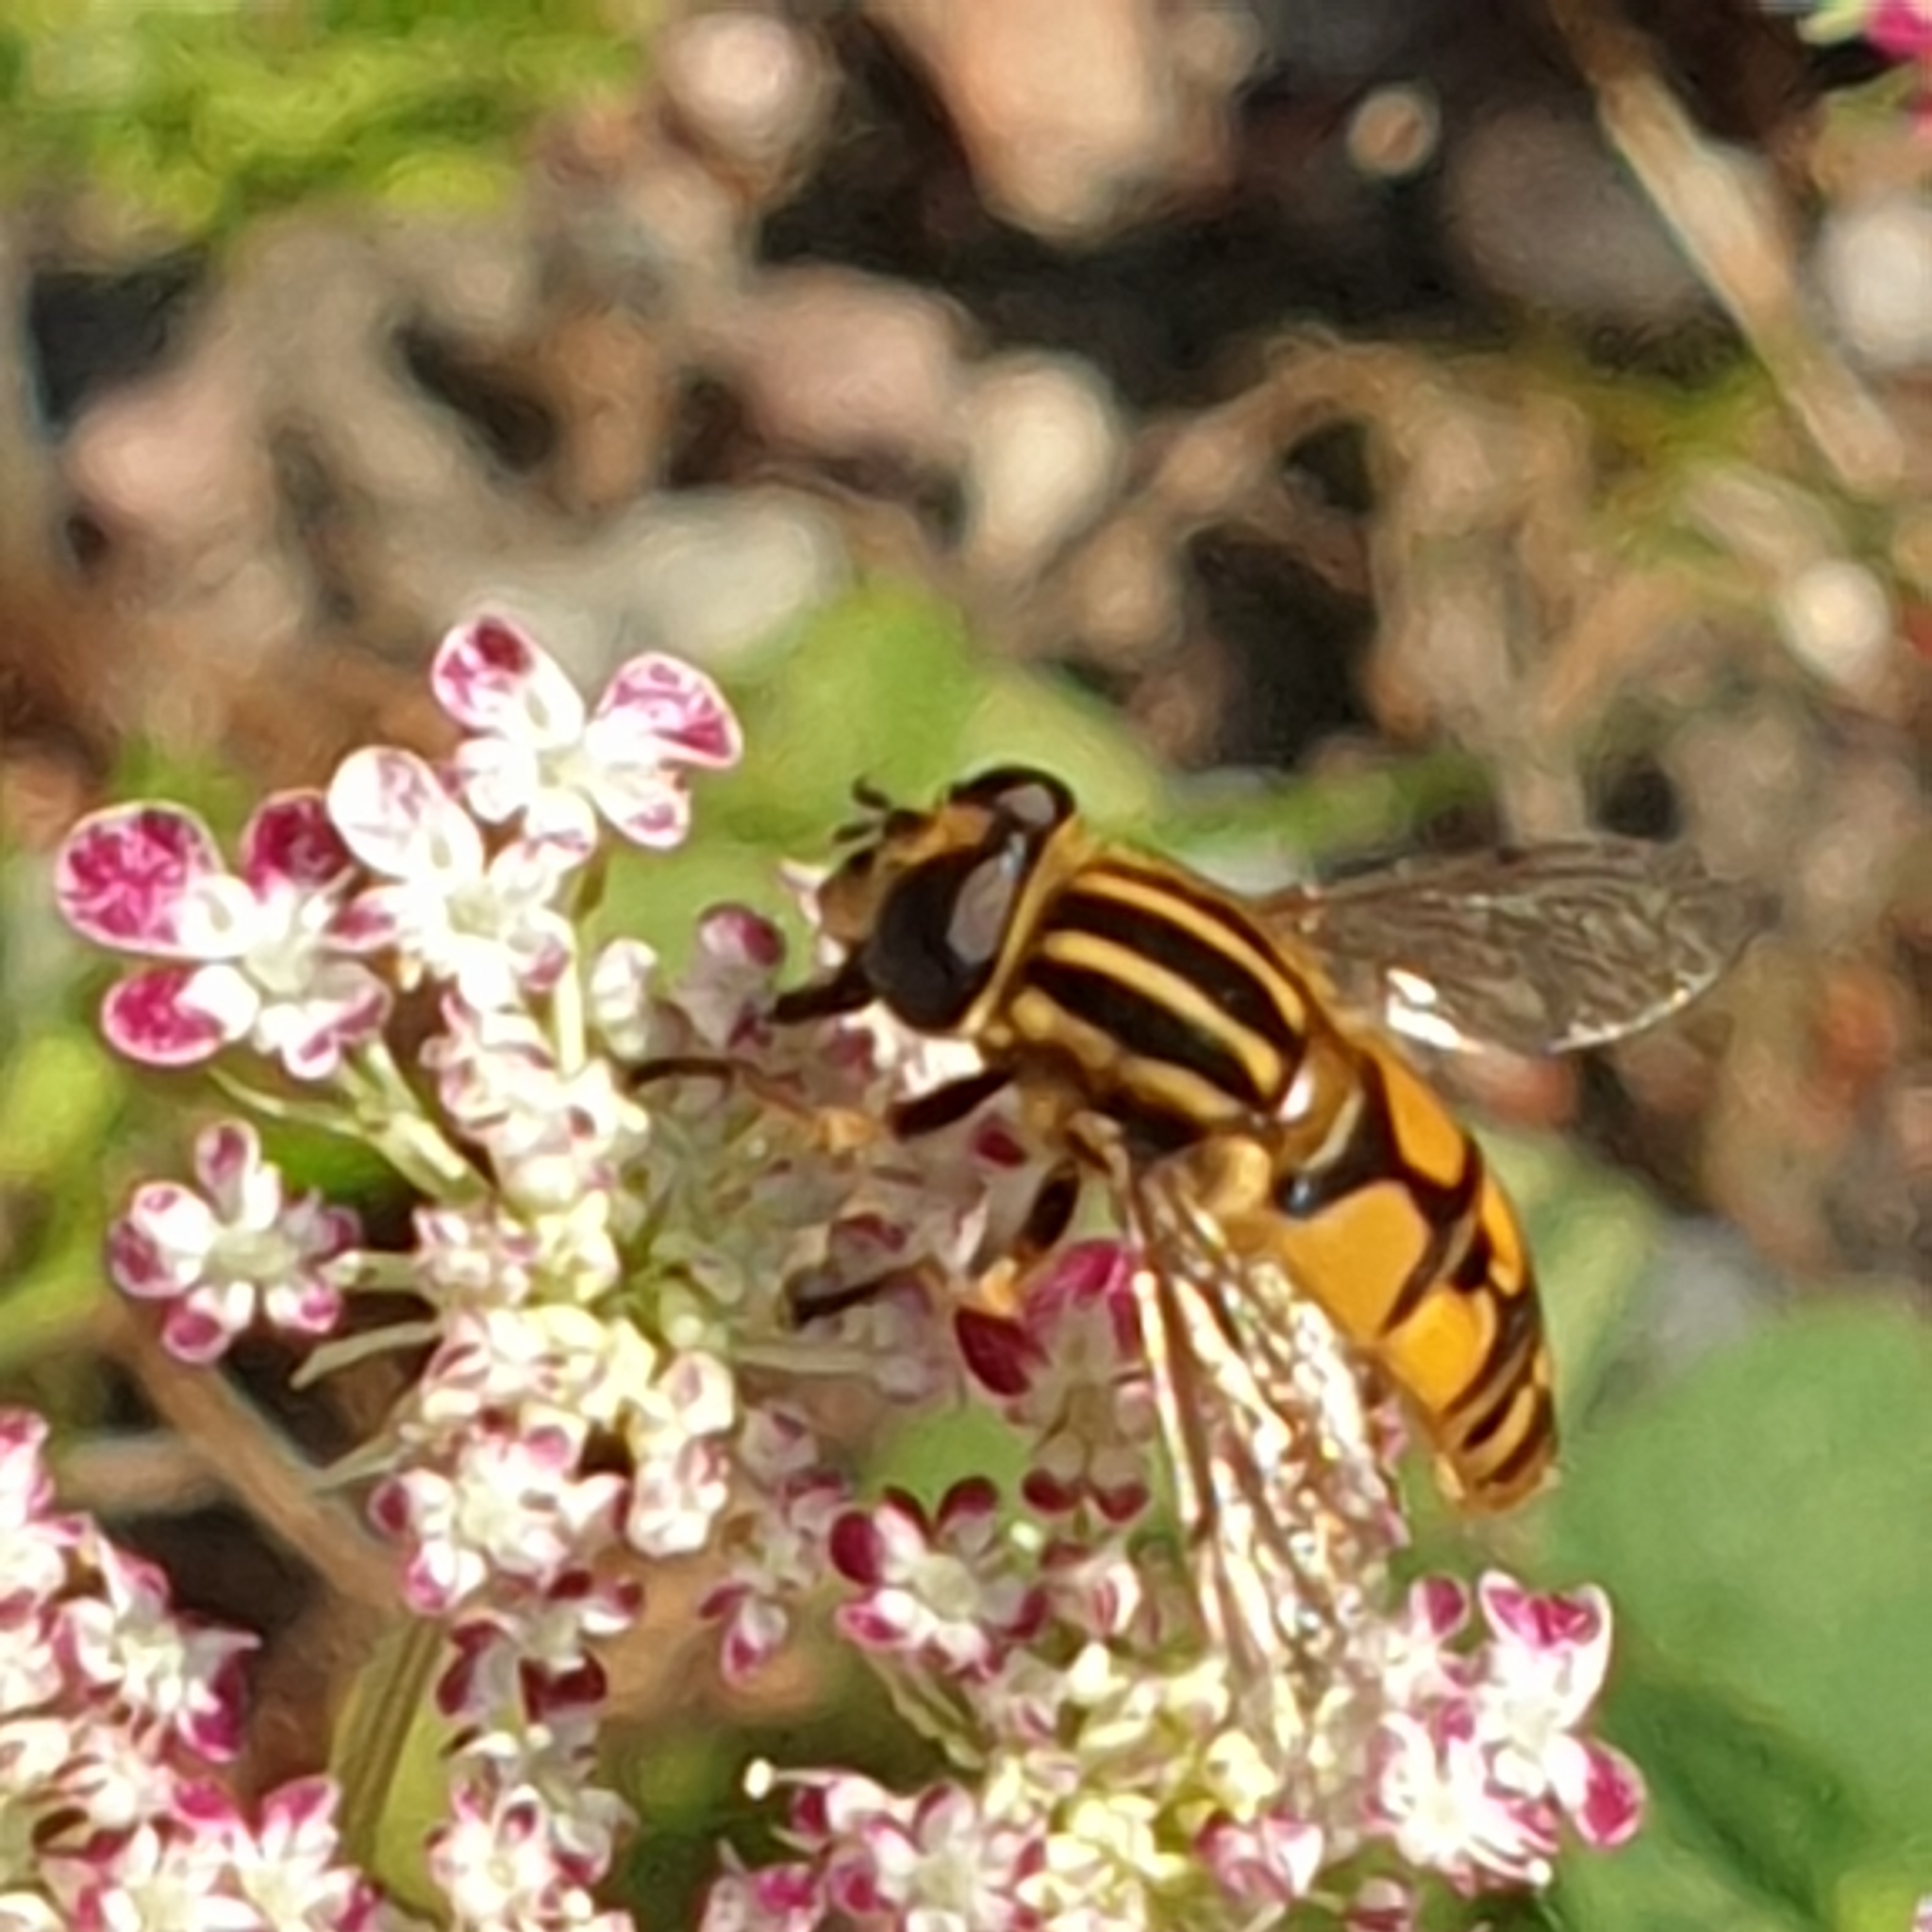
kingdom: Animalia
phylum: Arthropoda
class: Insecta
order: Diptera
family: Syrphidae
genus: Helophilus
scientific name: Helophilus pendulus
